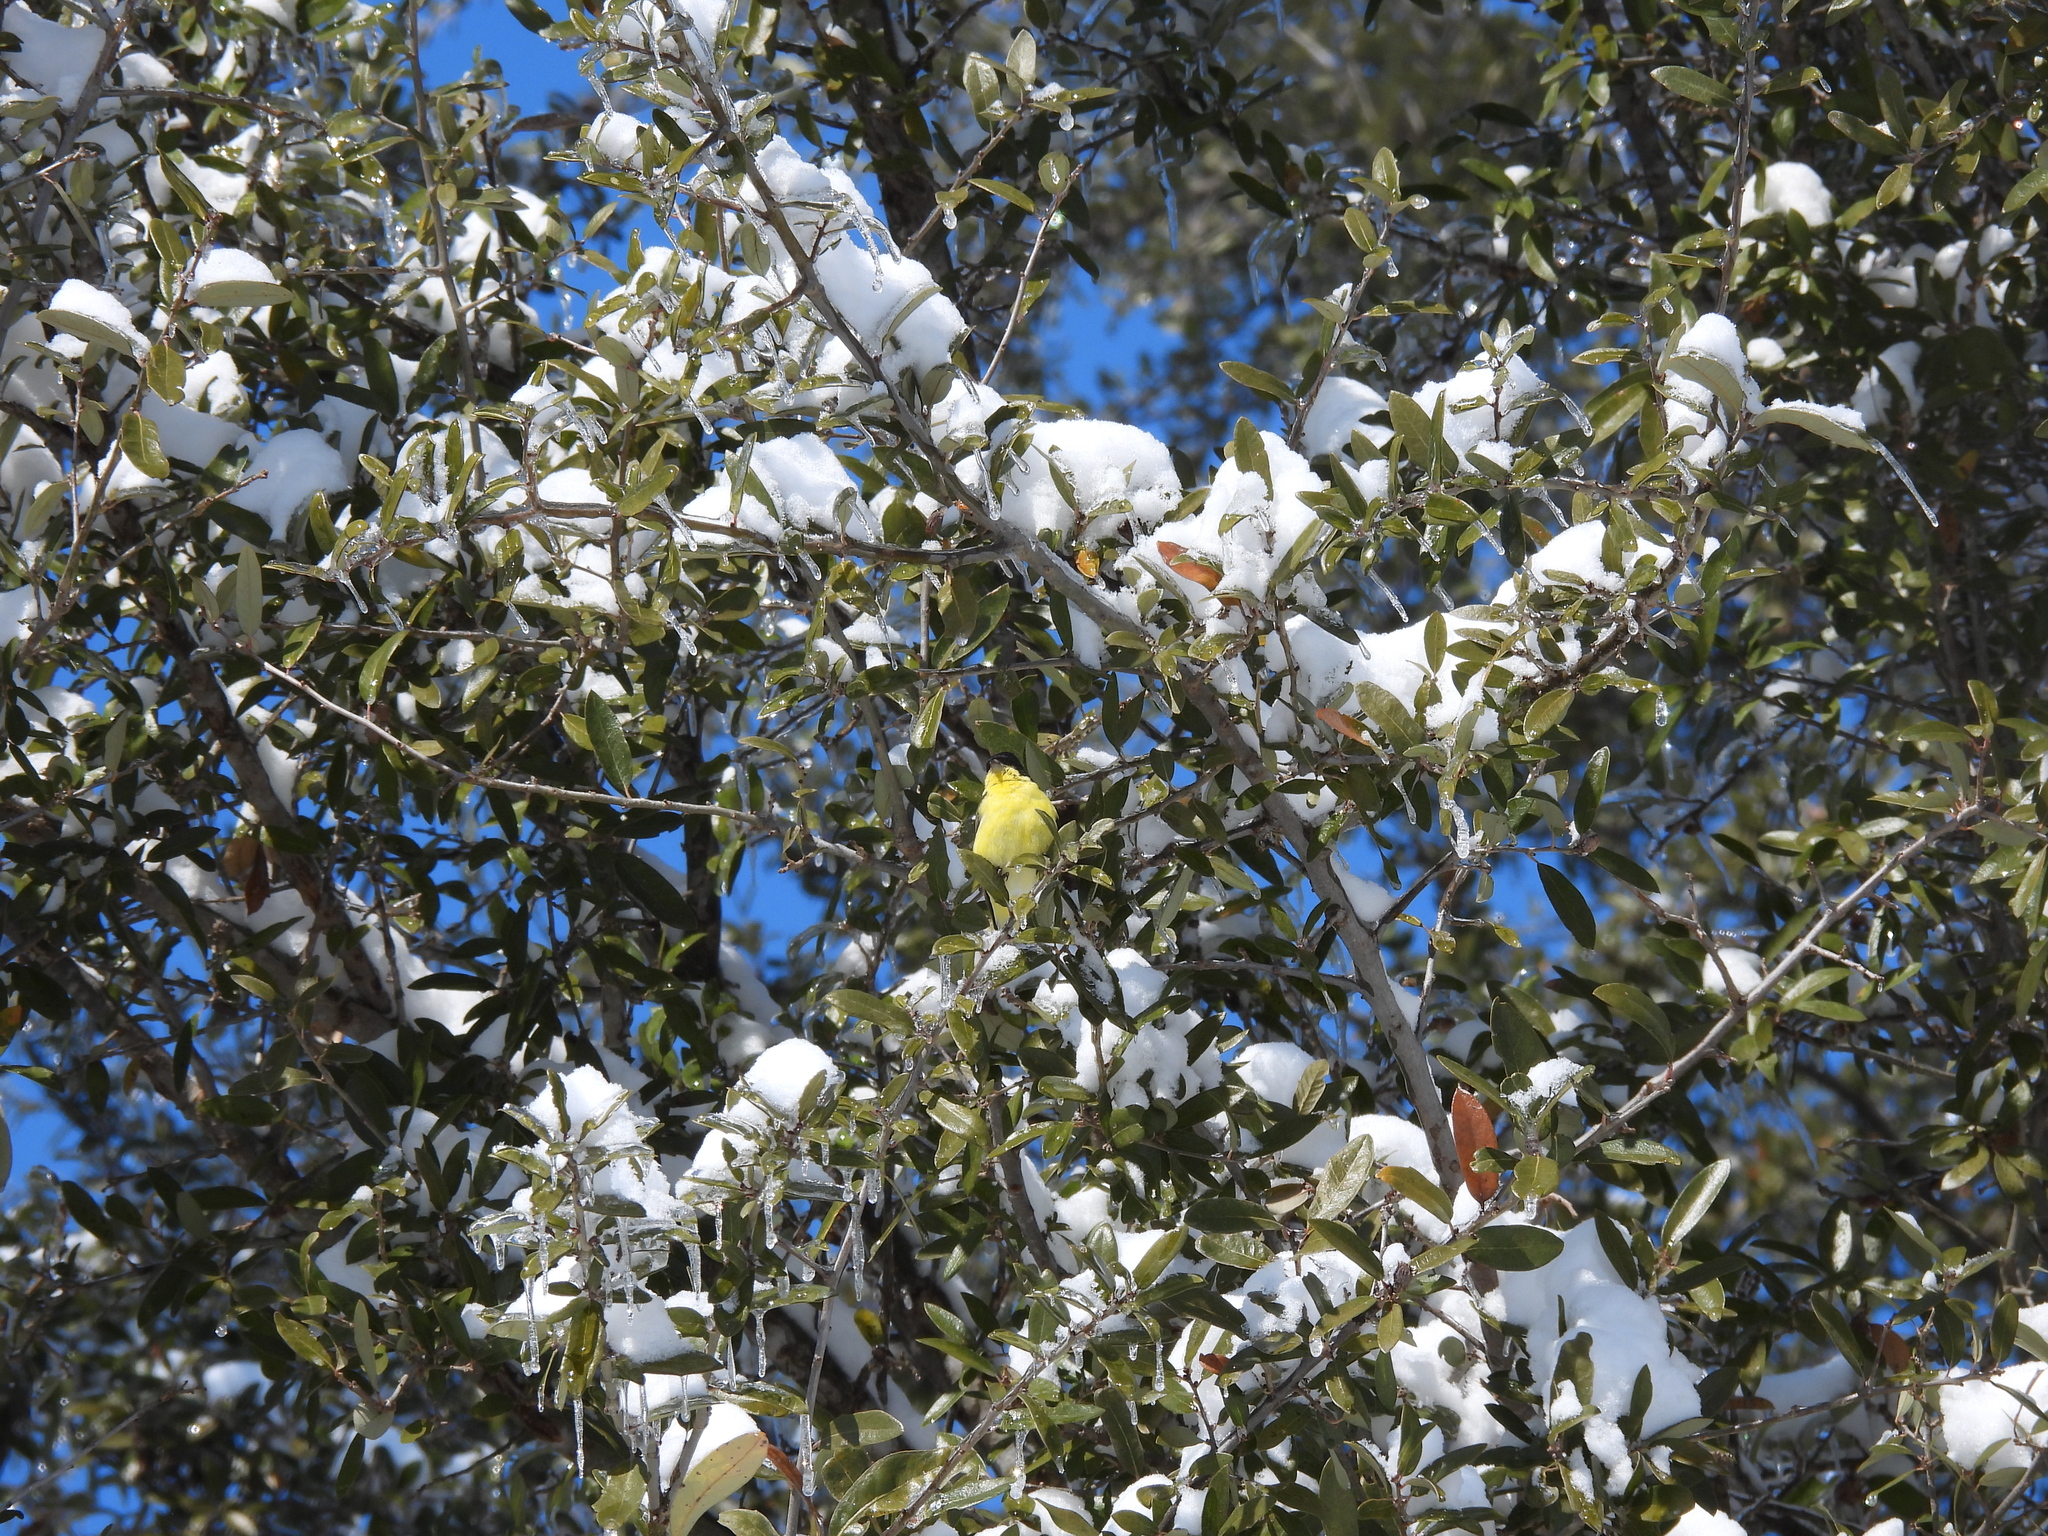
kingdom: Animalia
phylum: Chordata
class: Aves
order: Passeriformes
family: Fringillidae
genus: Spinus
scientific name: Spinus psaltria
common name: Lesser goldfinch
